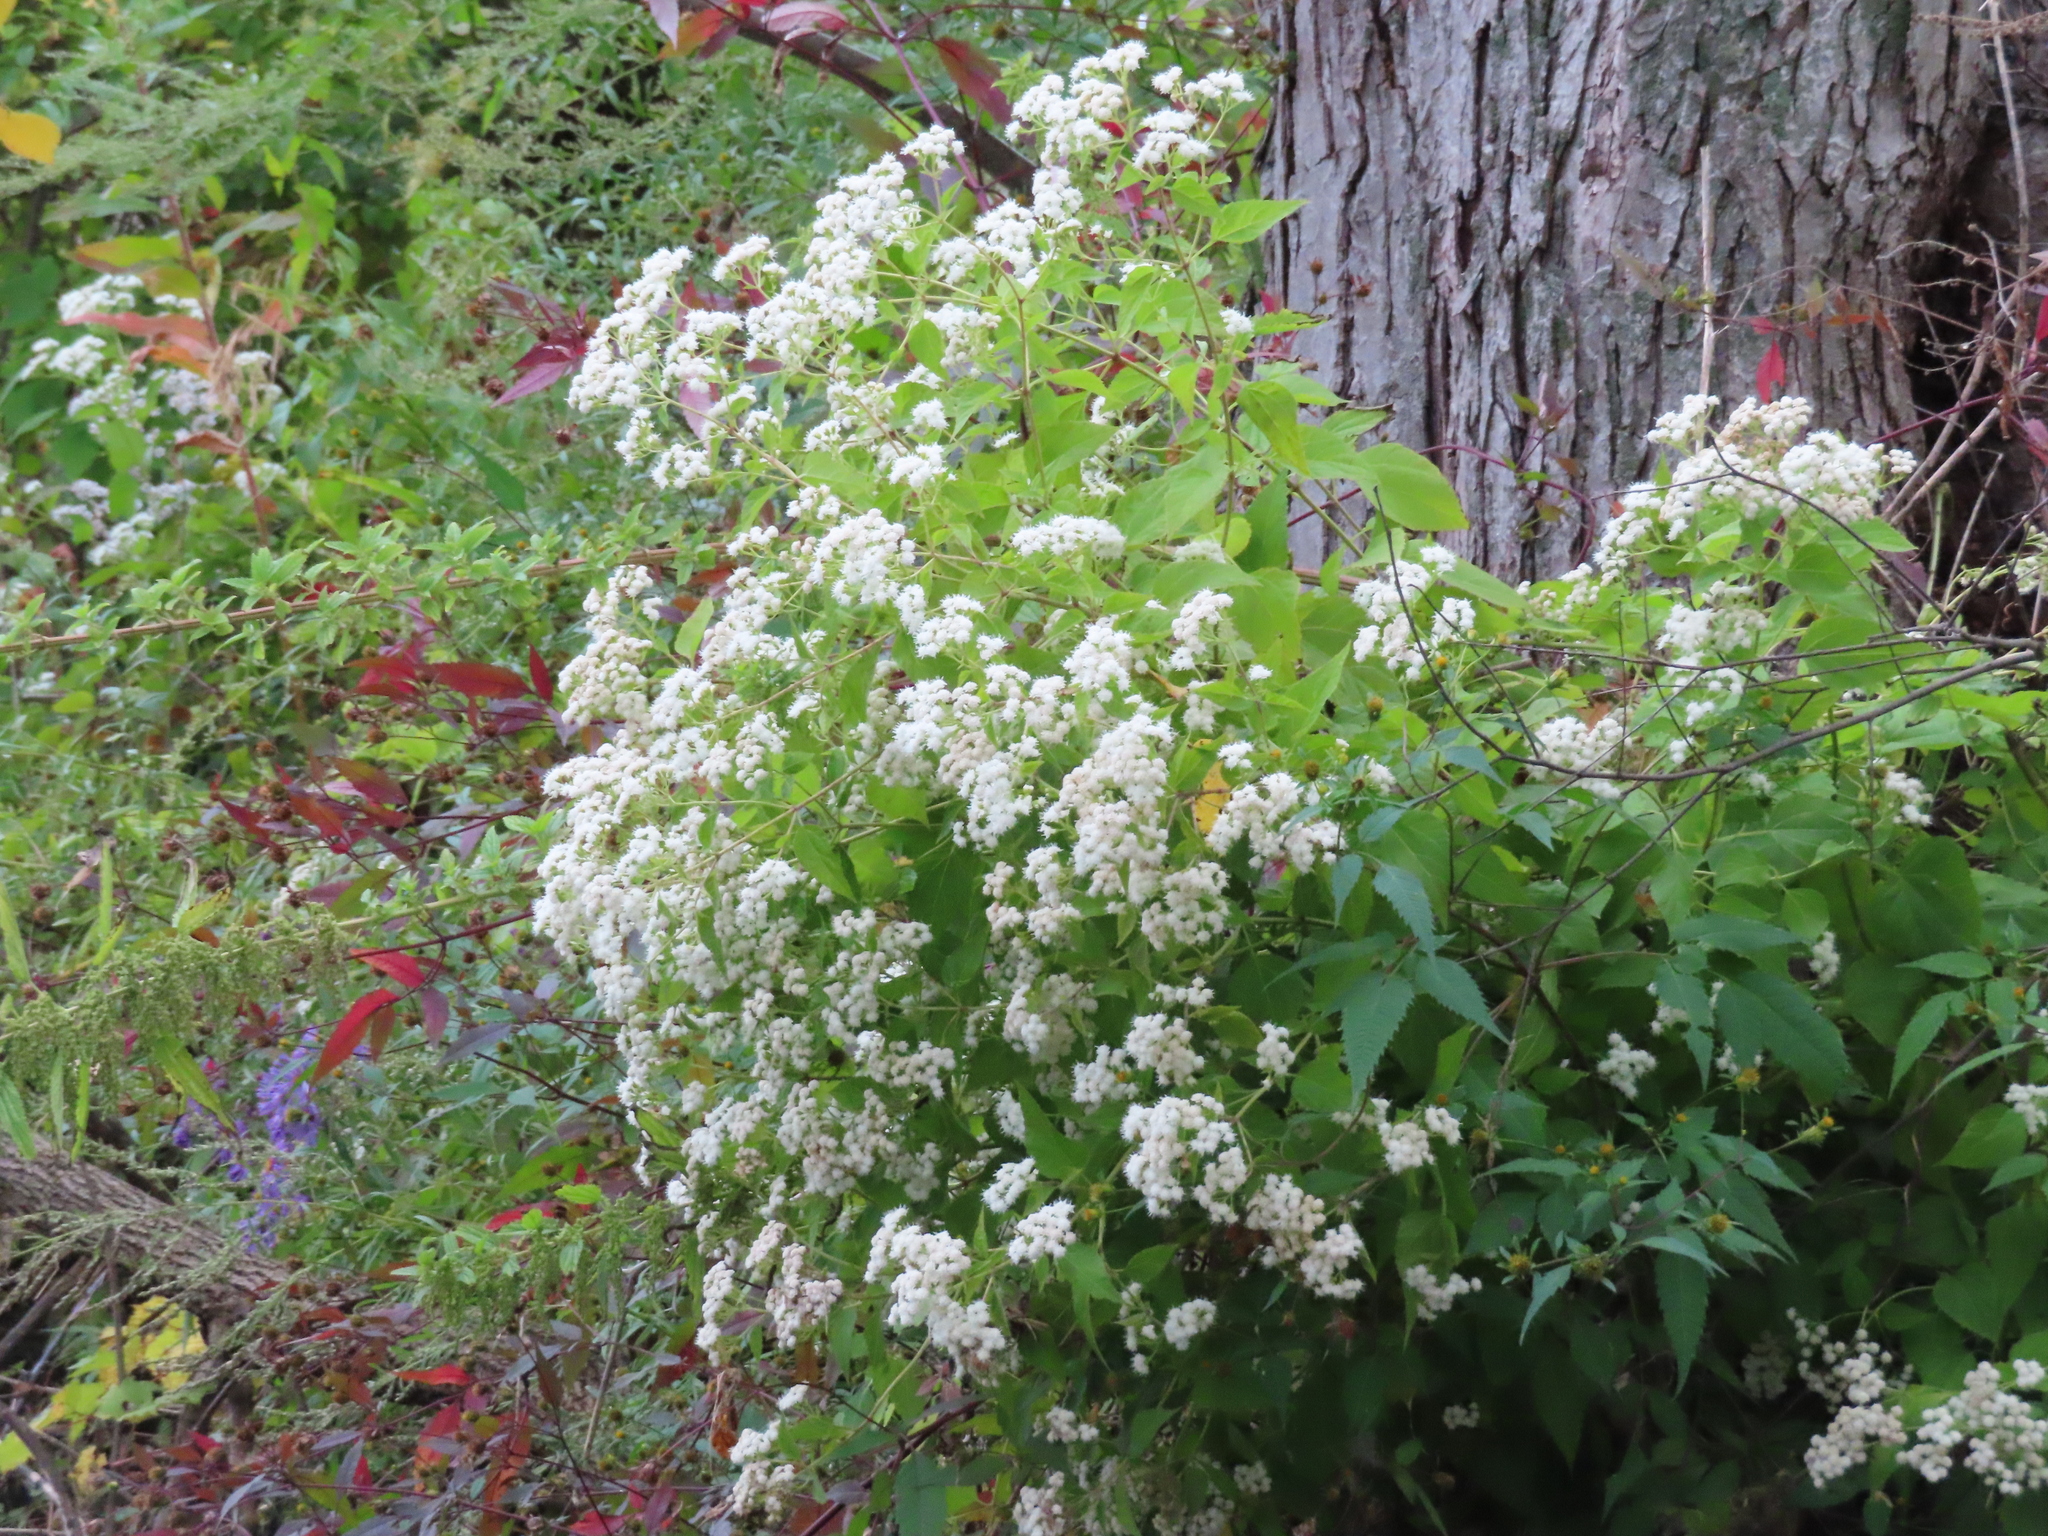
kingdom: Plantae
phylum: Tracheophyta
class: Magnoliopsida
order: Asterales
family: Asteraceae
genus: Ageratina
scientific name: Ageratina altissima
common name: White snakeroot
